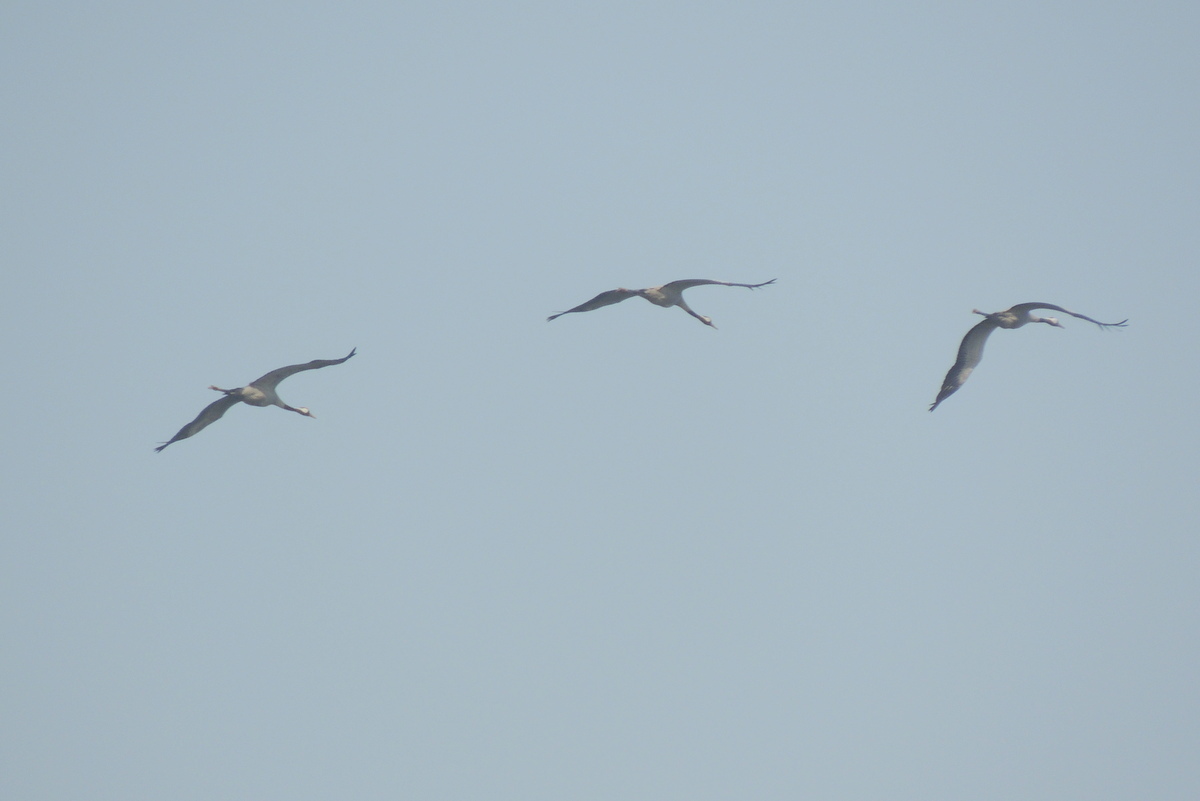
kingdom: Animalia
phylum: Chordata
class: Aves
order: Gruiformes
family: Gruidae
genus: Grus
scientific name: Grus grus
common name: Common crane
